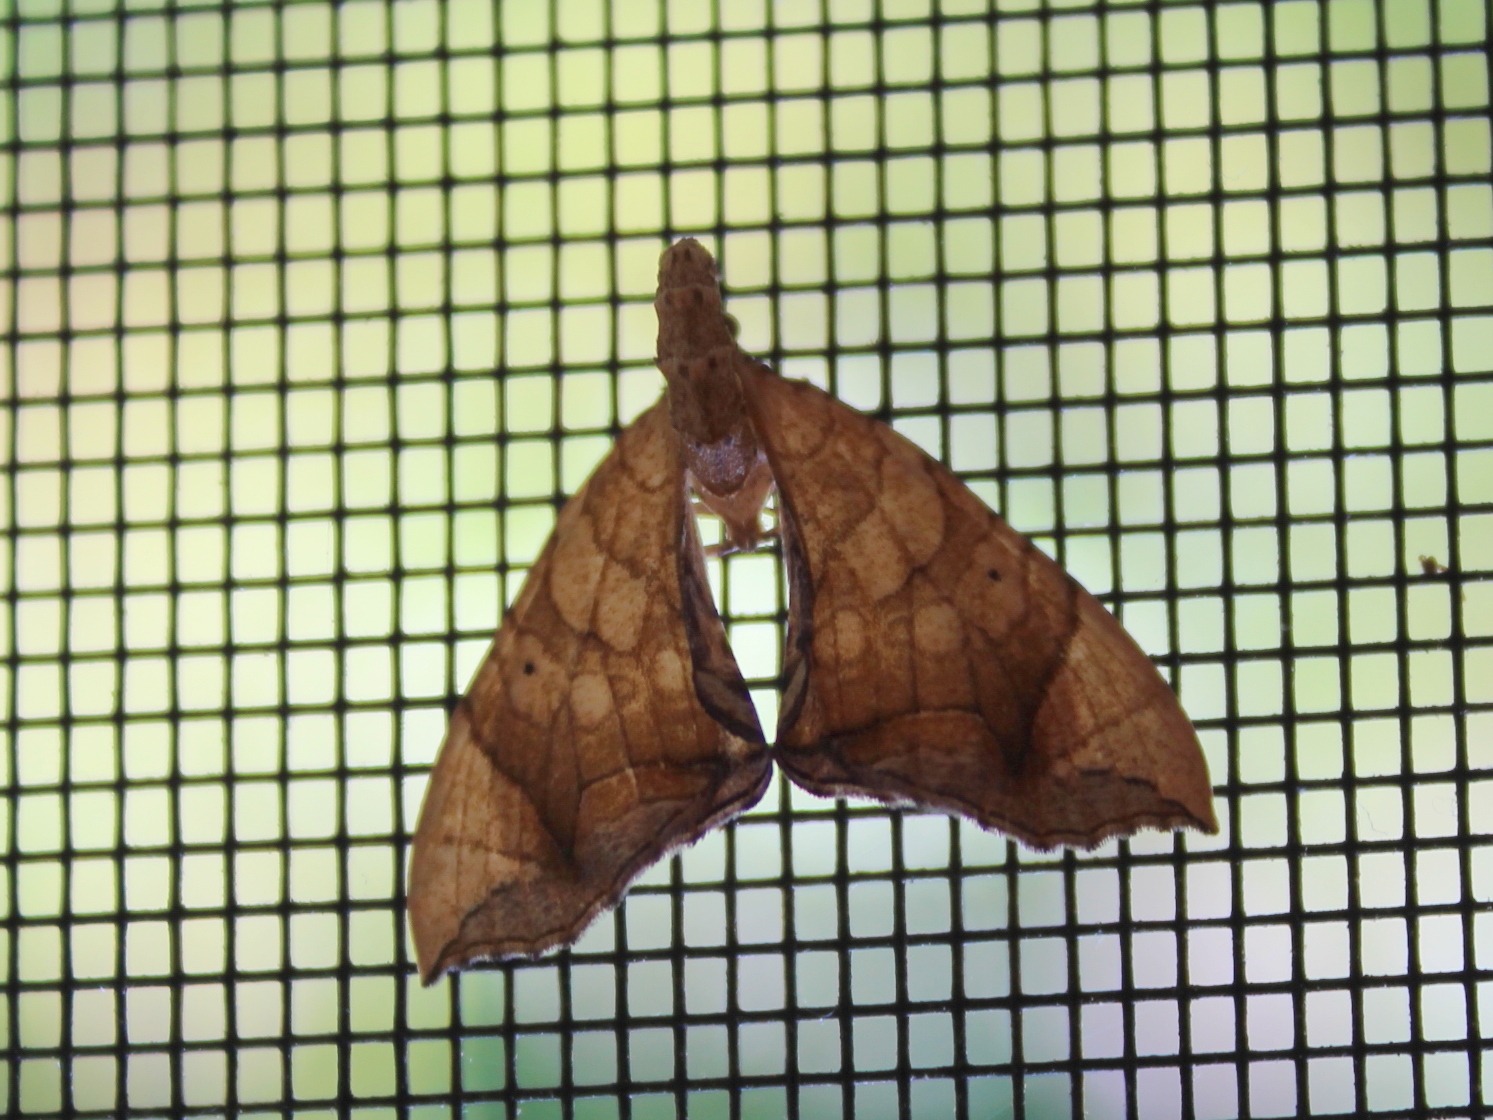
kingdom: Animalia
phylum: Arthropoda
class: Insecta
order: Lepidoptera
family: Geometridae
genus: Eulithis
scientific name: Eulithis diversilineata
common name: Grapevine looper
